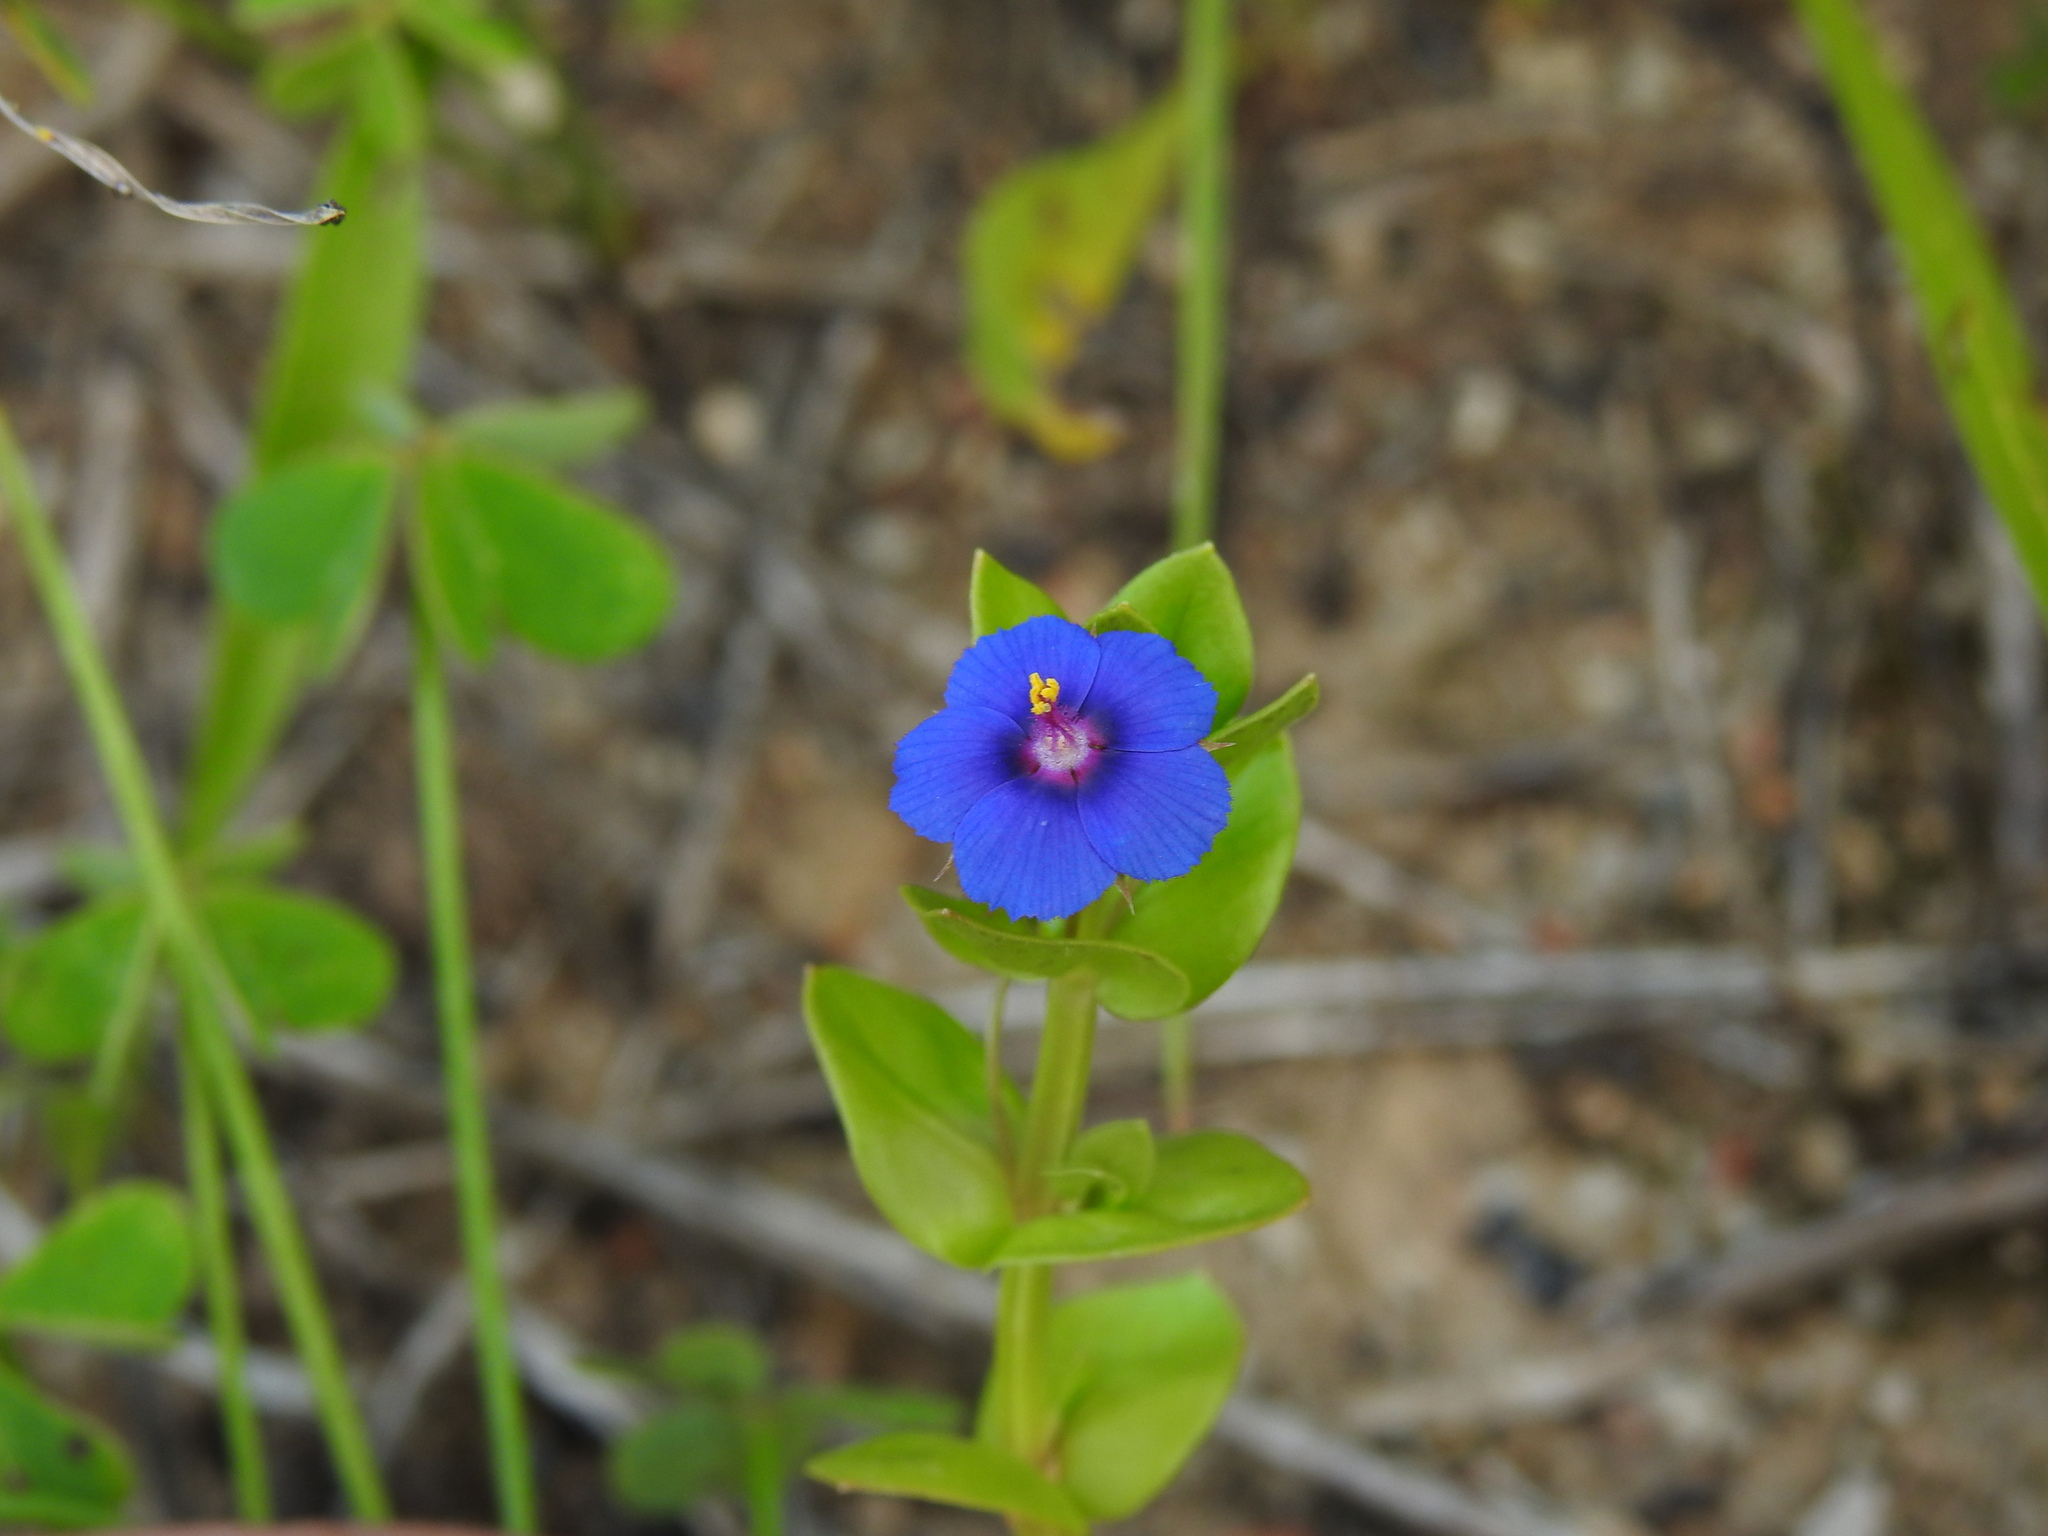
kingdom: Plantae
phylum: Tracheophyta
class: Magnoliopsida
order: Ericales
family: Primulaceae
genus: Lysimachia
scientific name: Lysimachia loeflingii
